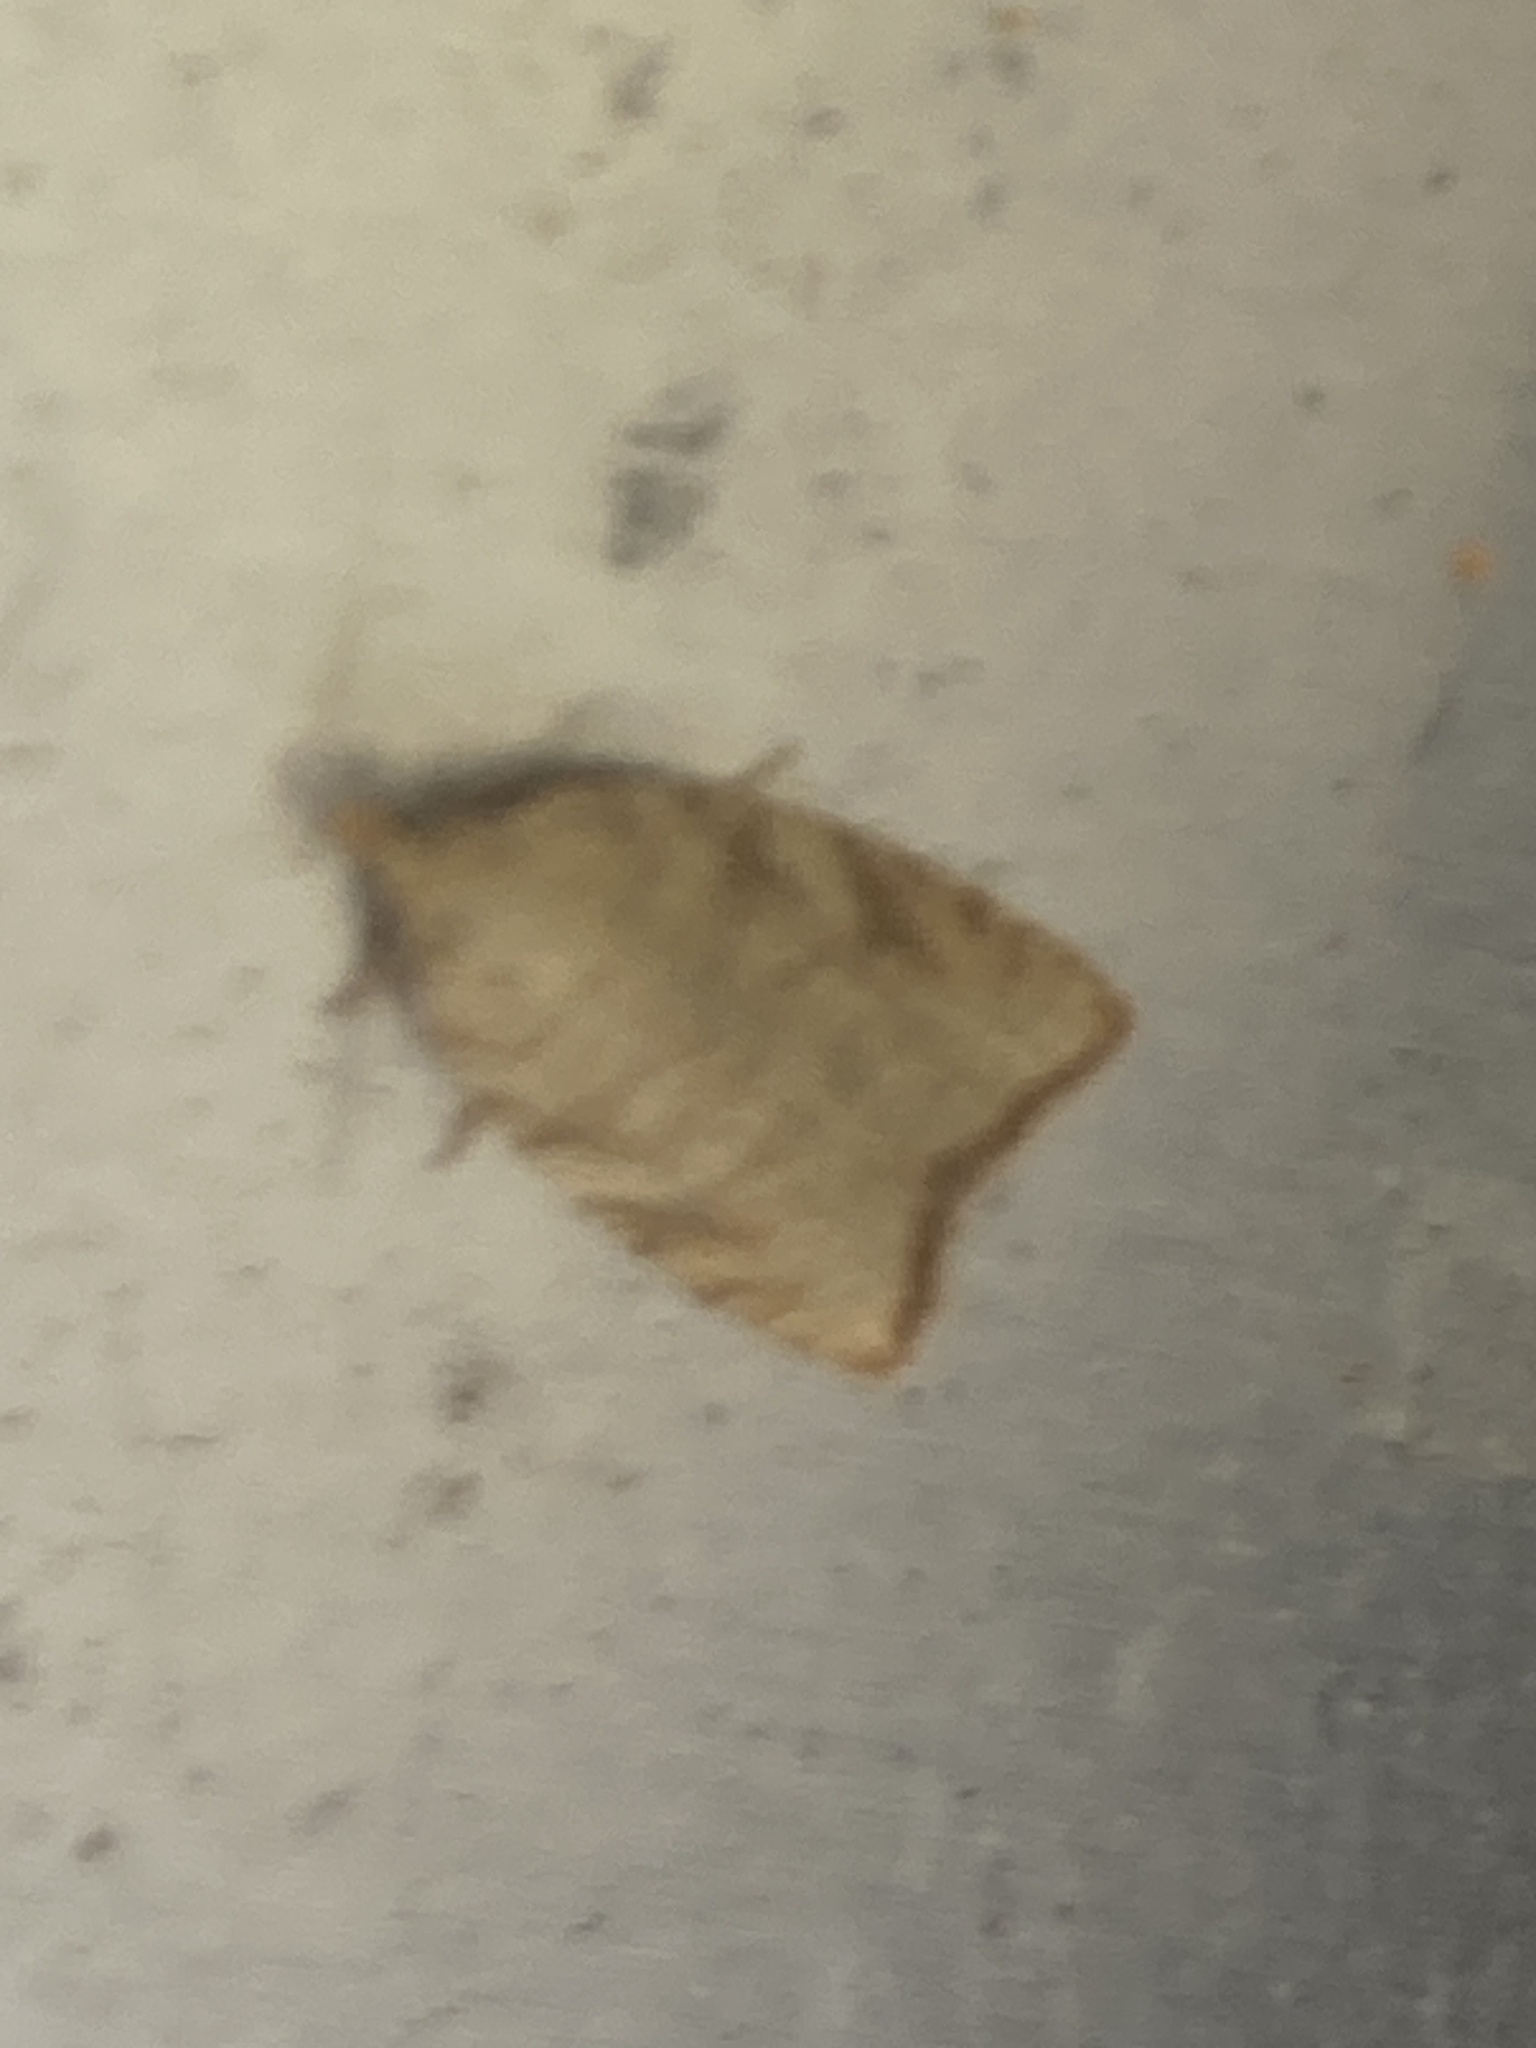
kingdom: Animalia
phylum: Arthropoda
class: Insecta
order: Lepidoptera
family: Tortricidae
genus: Aleimma
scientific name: Aleimma loeflingiana
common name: Yellow oak button
